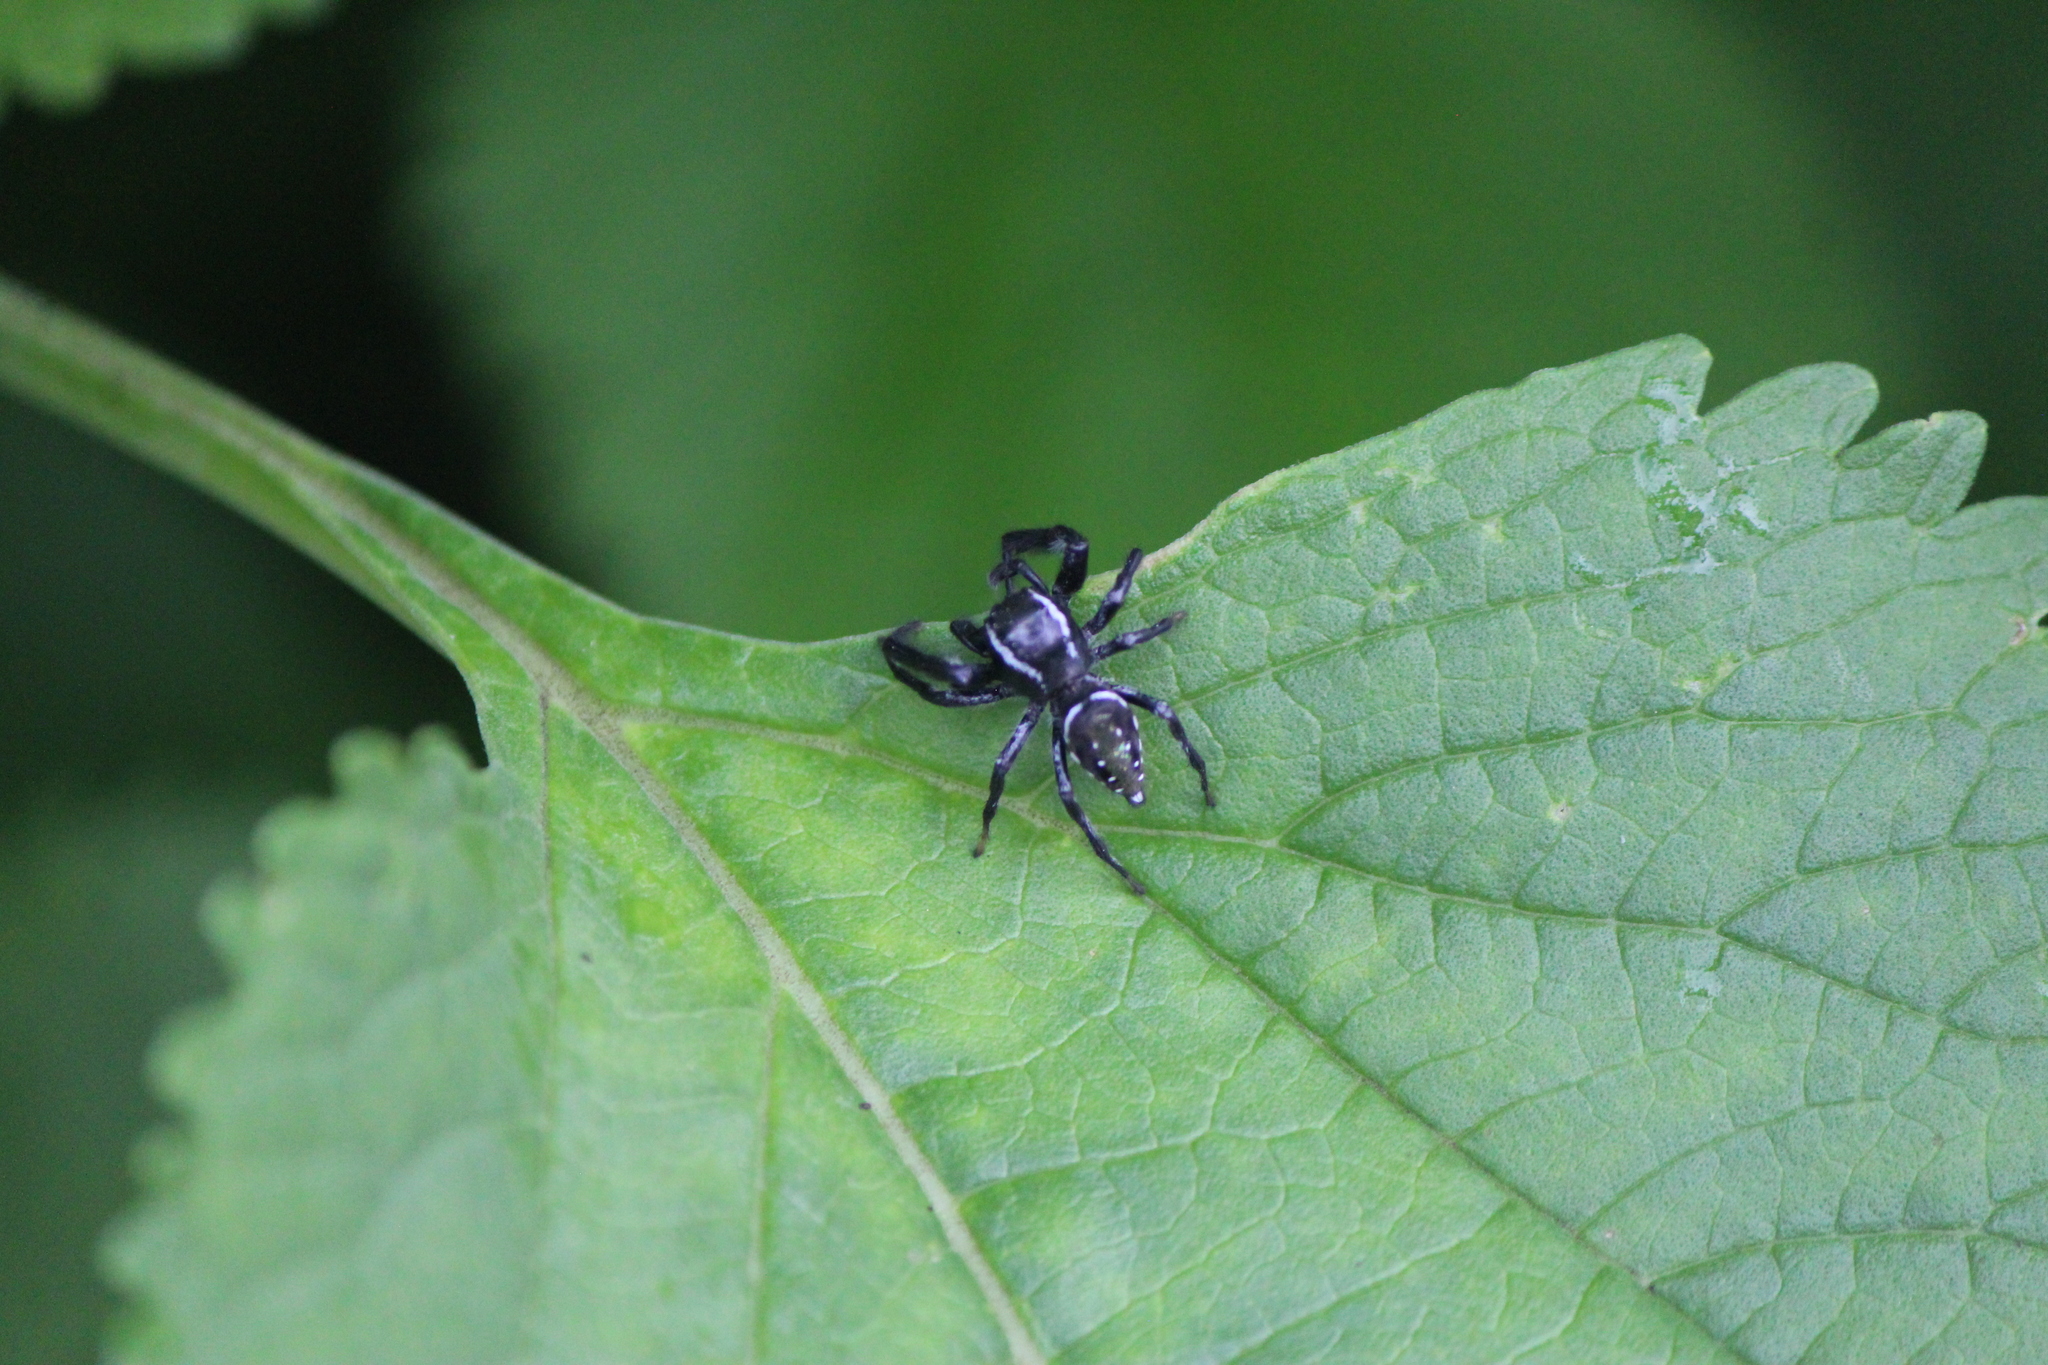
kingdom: Animalia
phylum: Arthropoda
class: Arachnida
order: Araneae
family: Salticidae
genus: Paraphidippus
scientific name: Paraphidippus aurantius
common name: Jumping spiders
